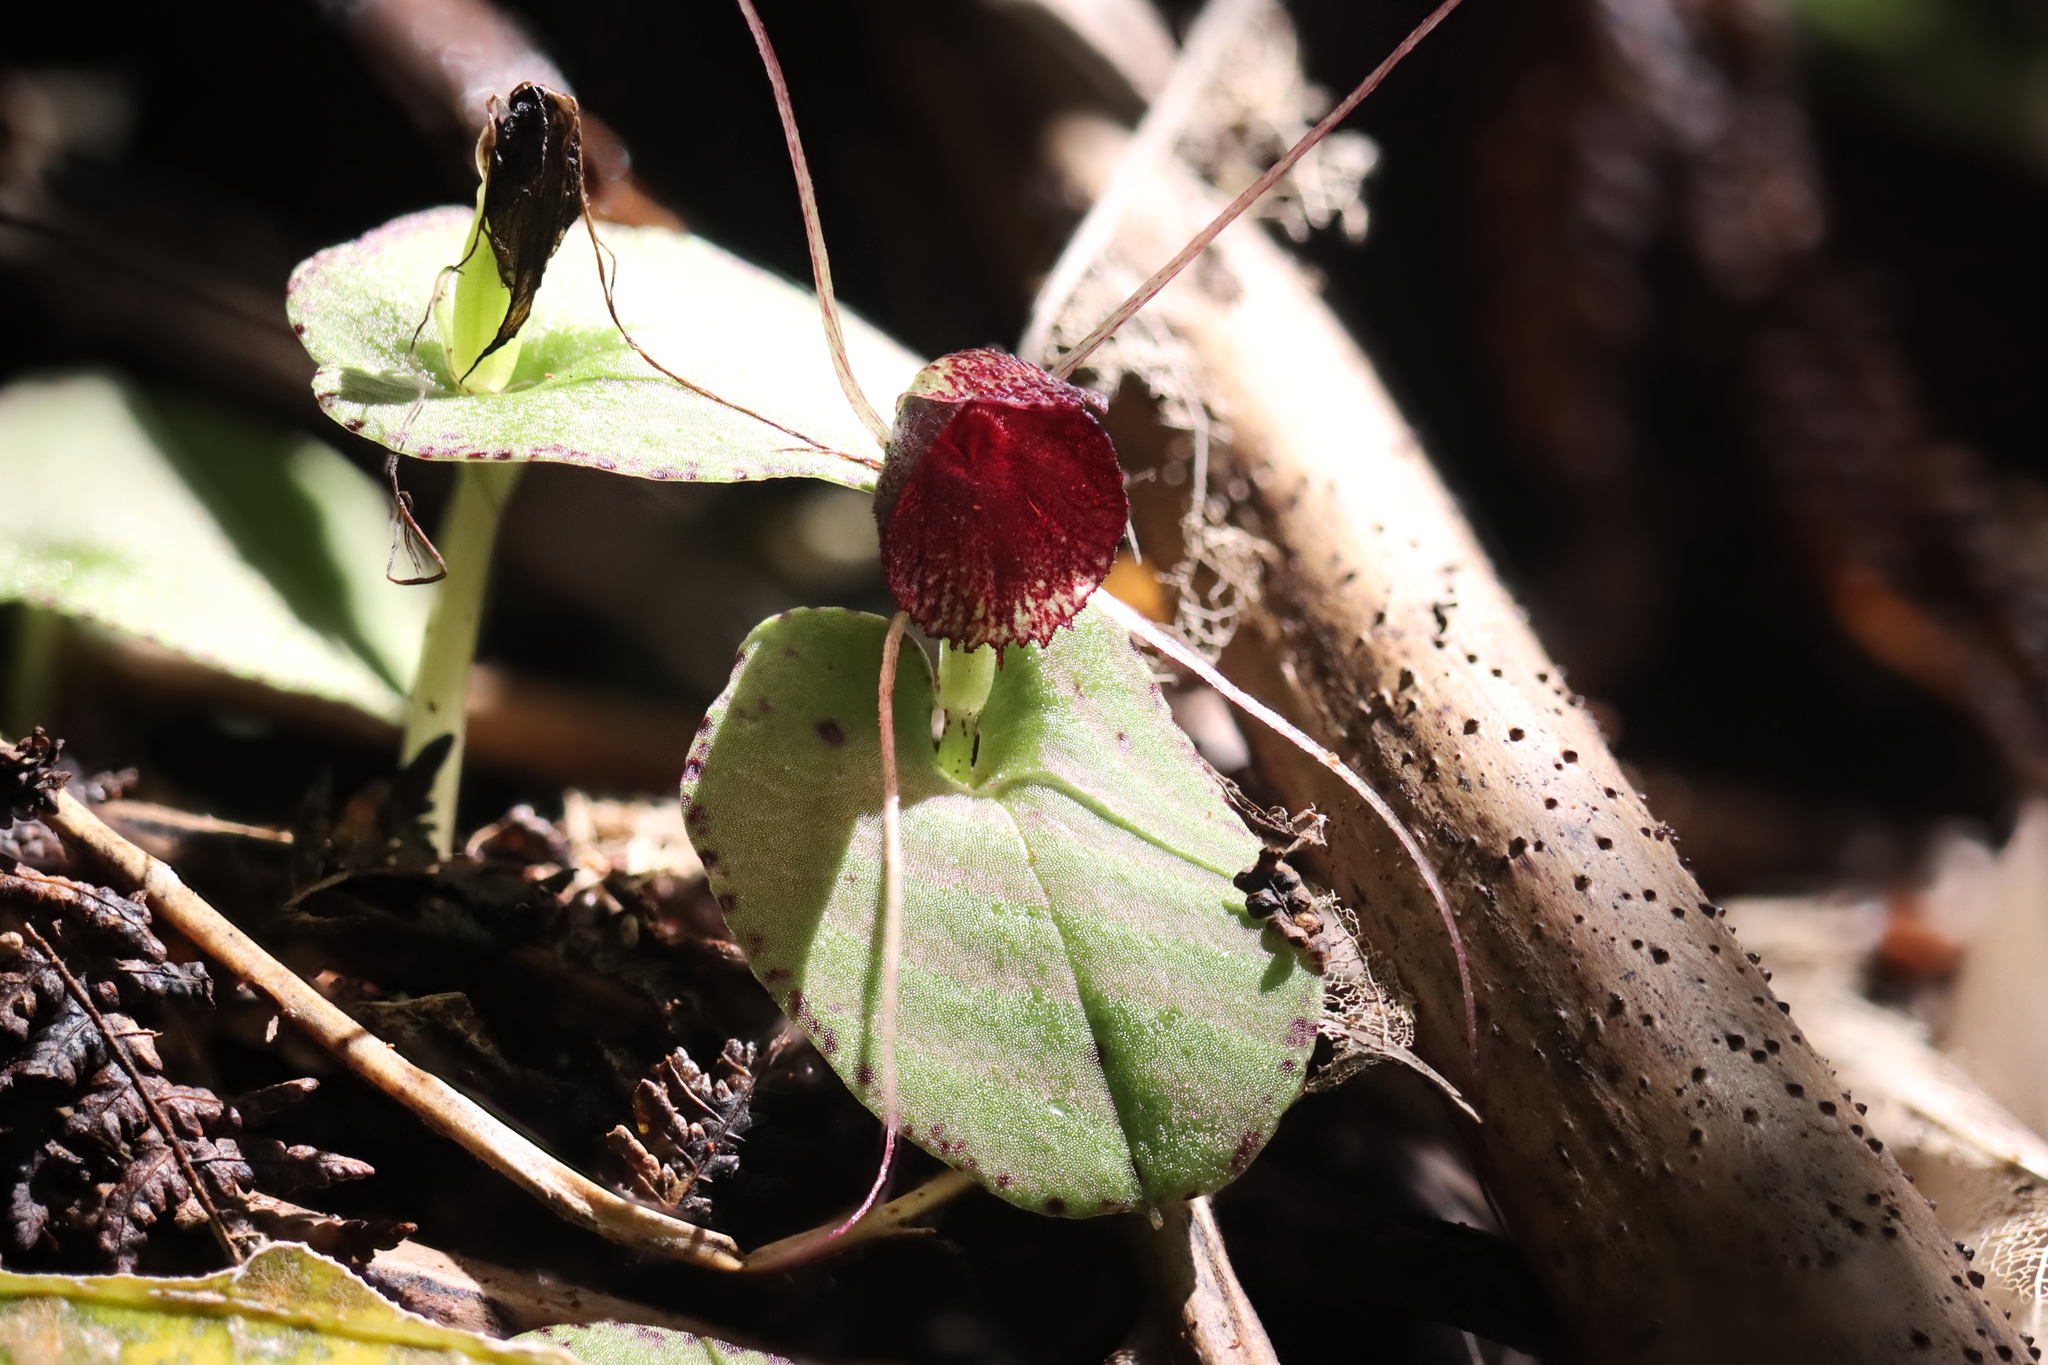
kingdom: Plantae
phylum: Tracheophyta
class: Liliopsida
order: Asparagales
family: Orchidaceae
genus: Corybas
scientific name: Corybas iridescens
